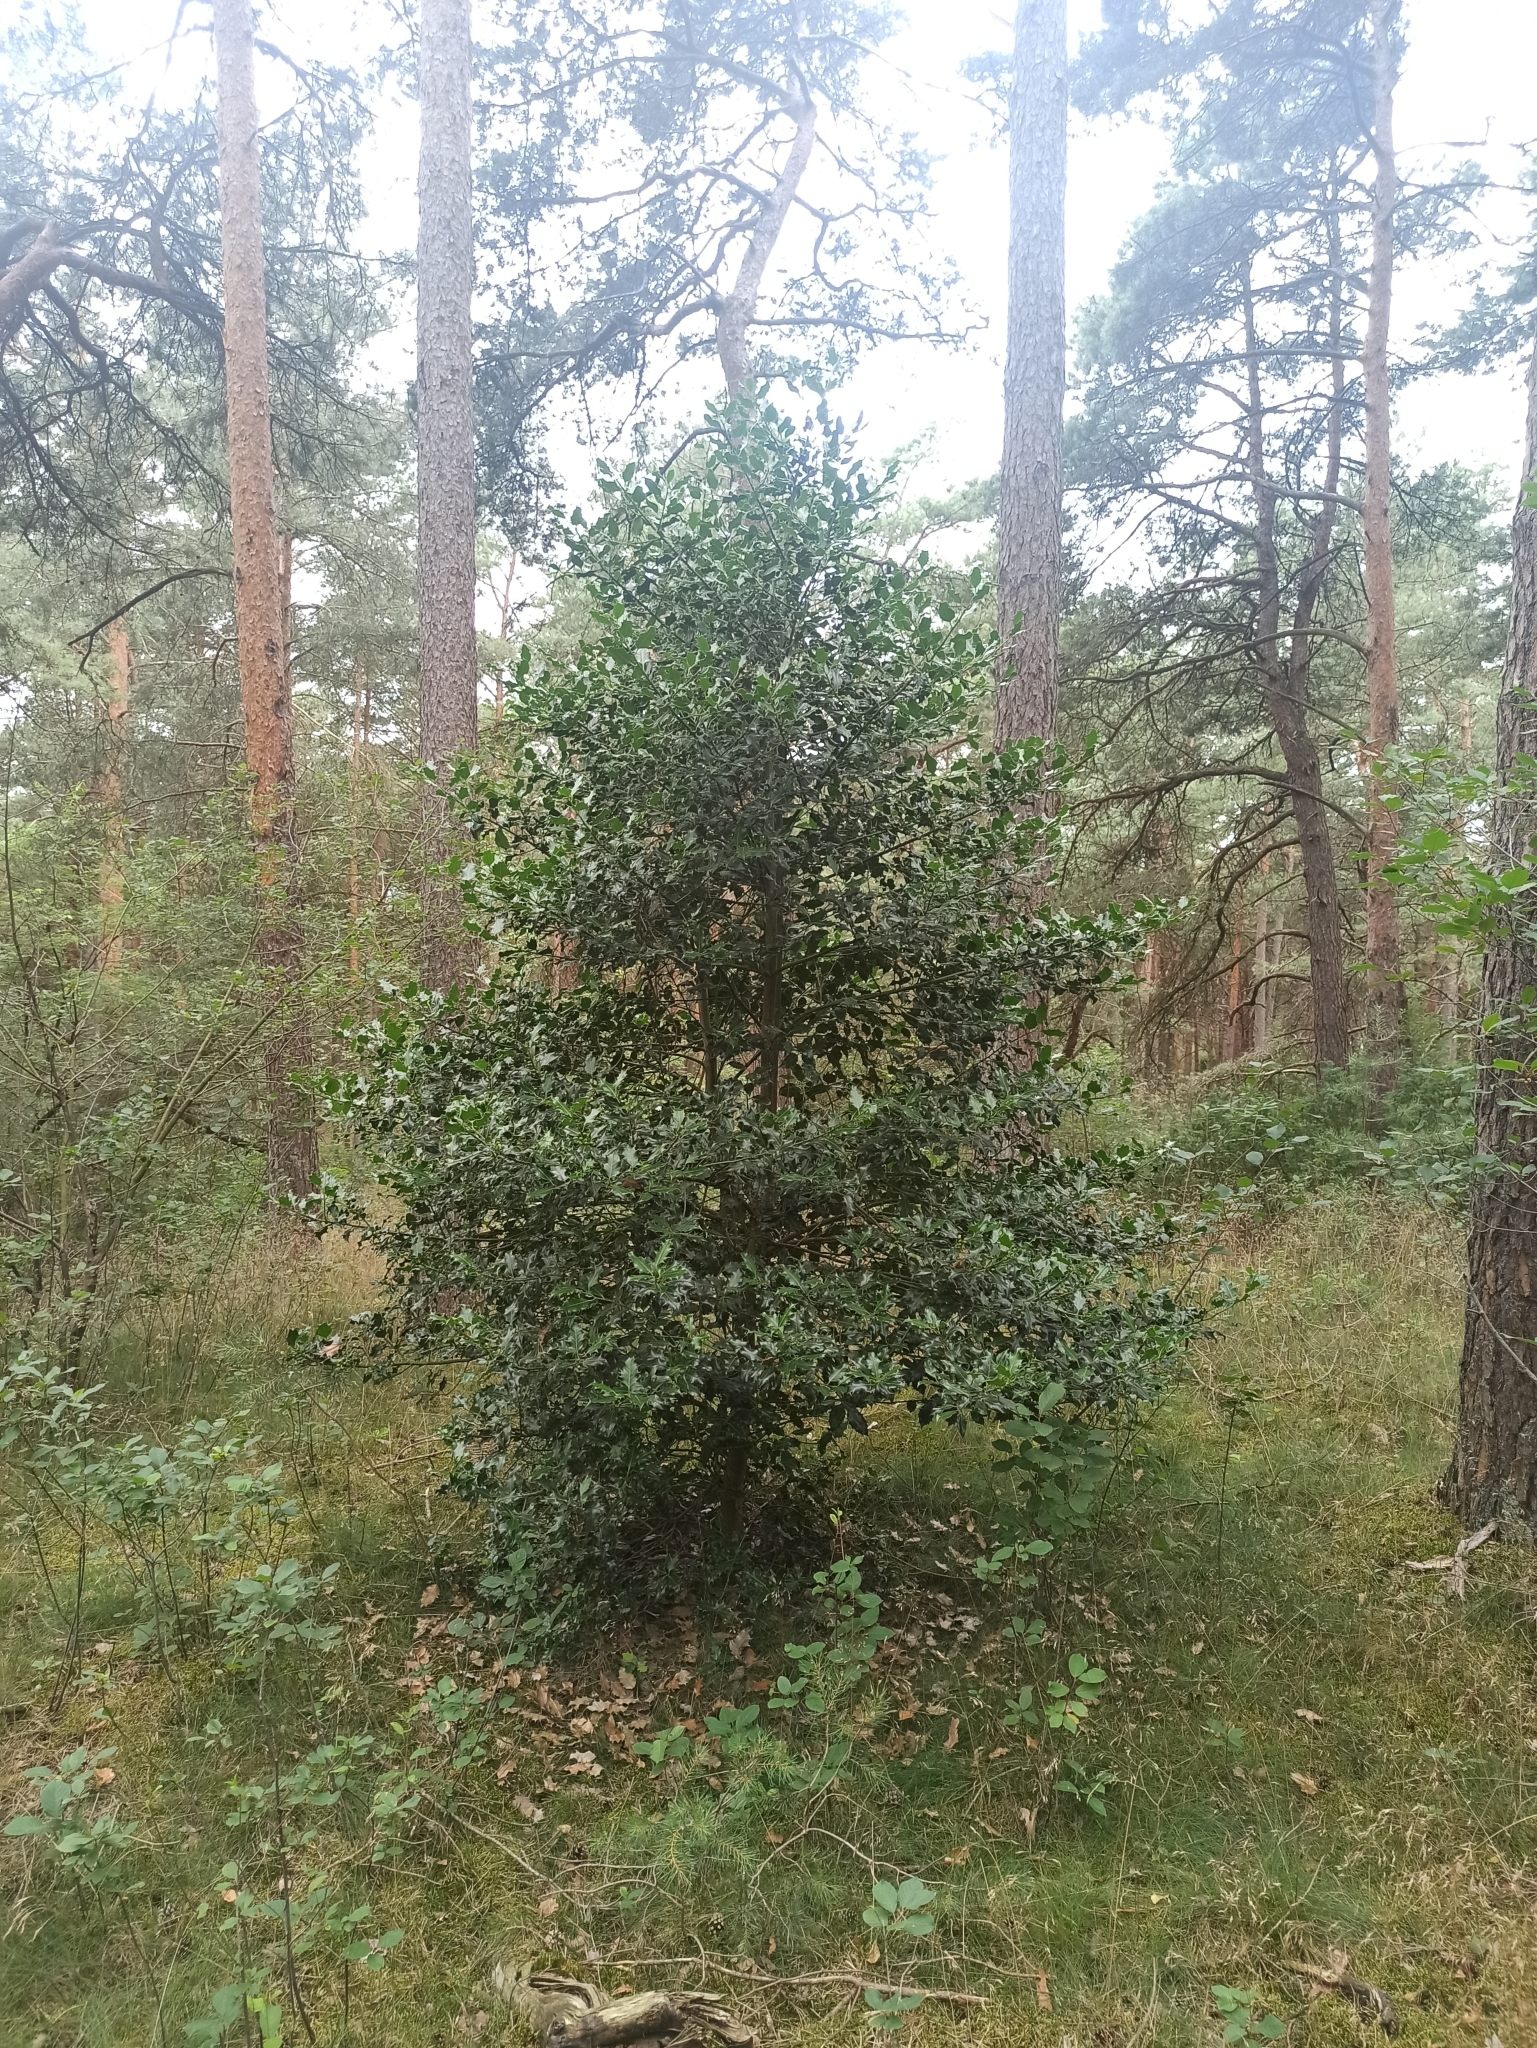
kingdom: Plantae
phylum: Tracheophyta
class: Magnoliopsida
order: Aquifoliales
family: Aquifoliaceae
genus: Ilex
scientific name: Ilex aquifolium
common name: English holly
